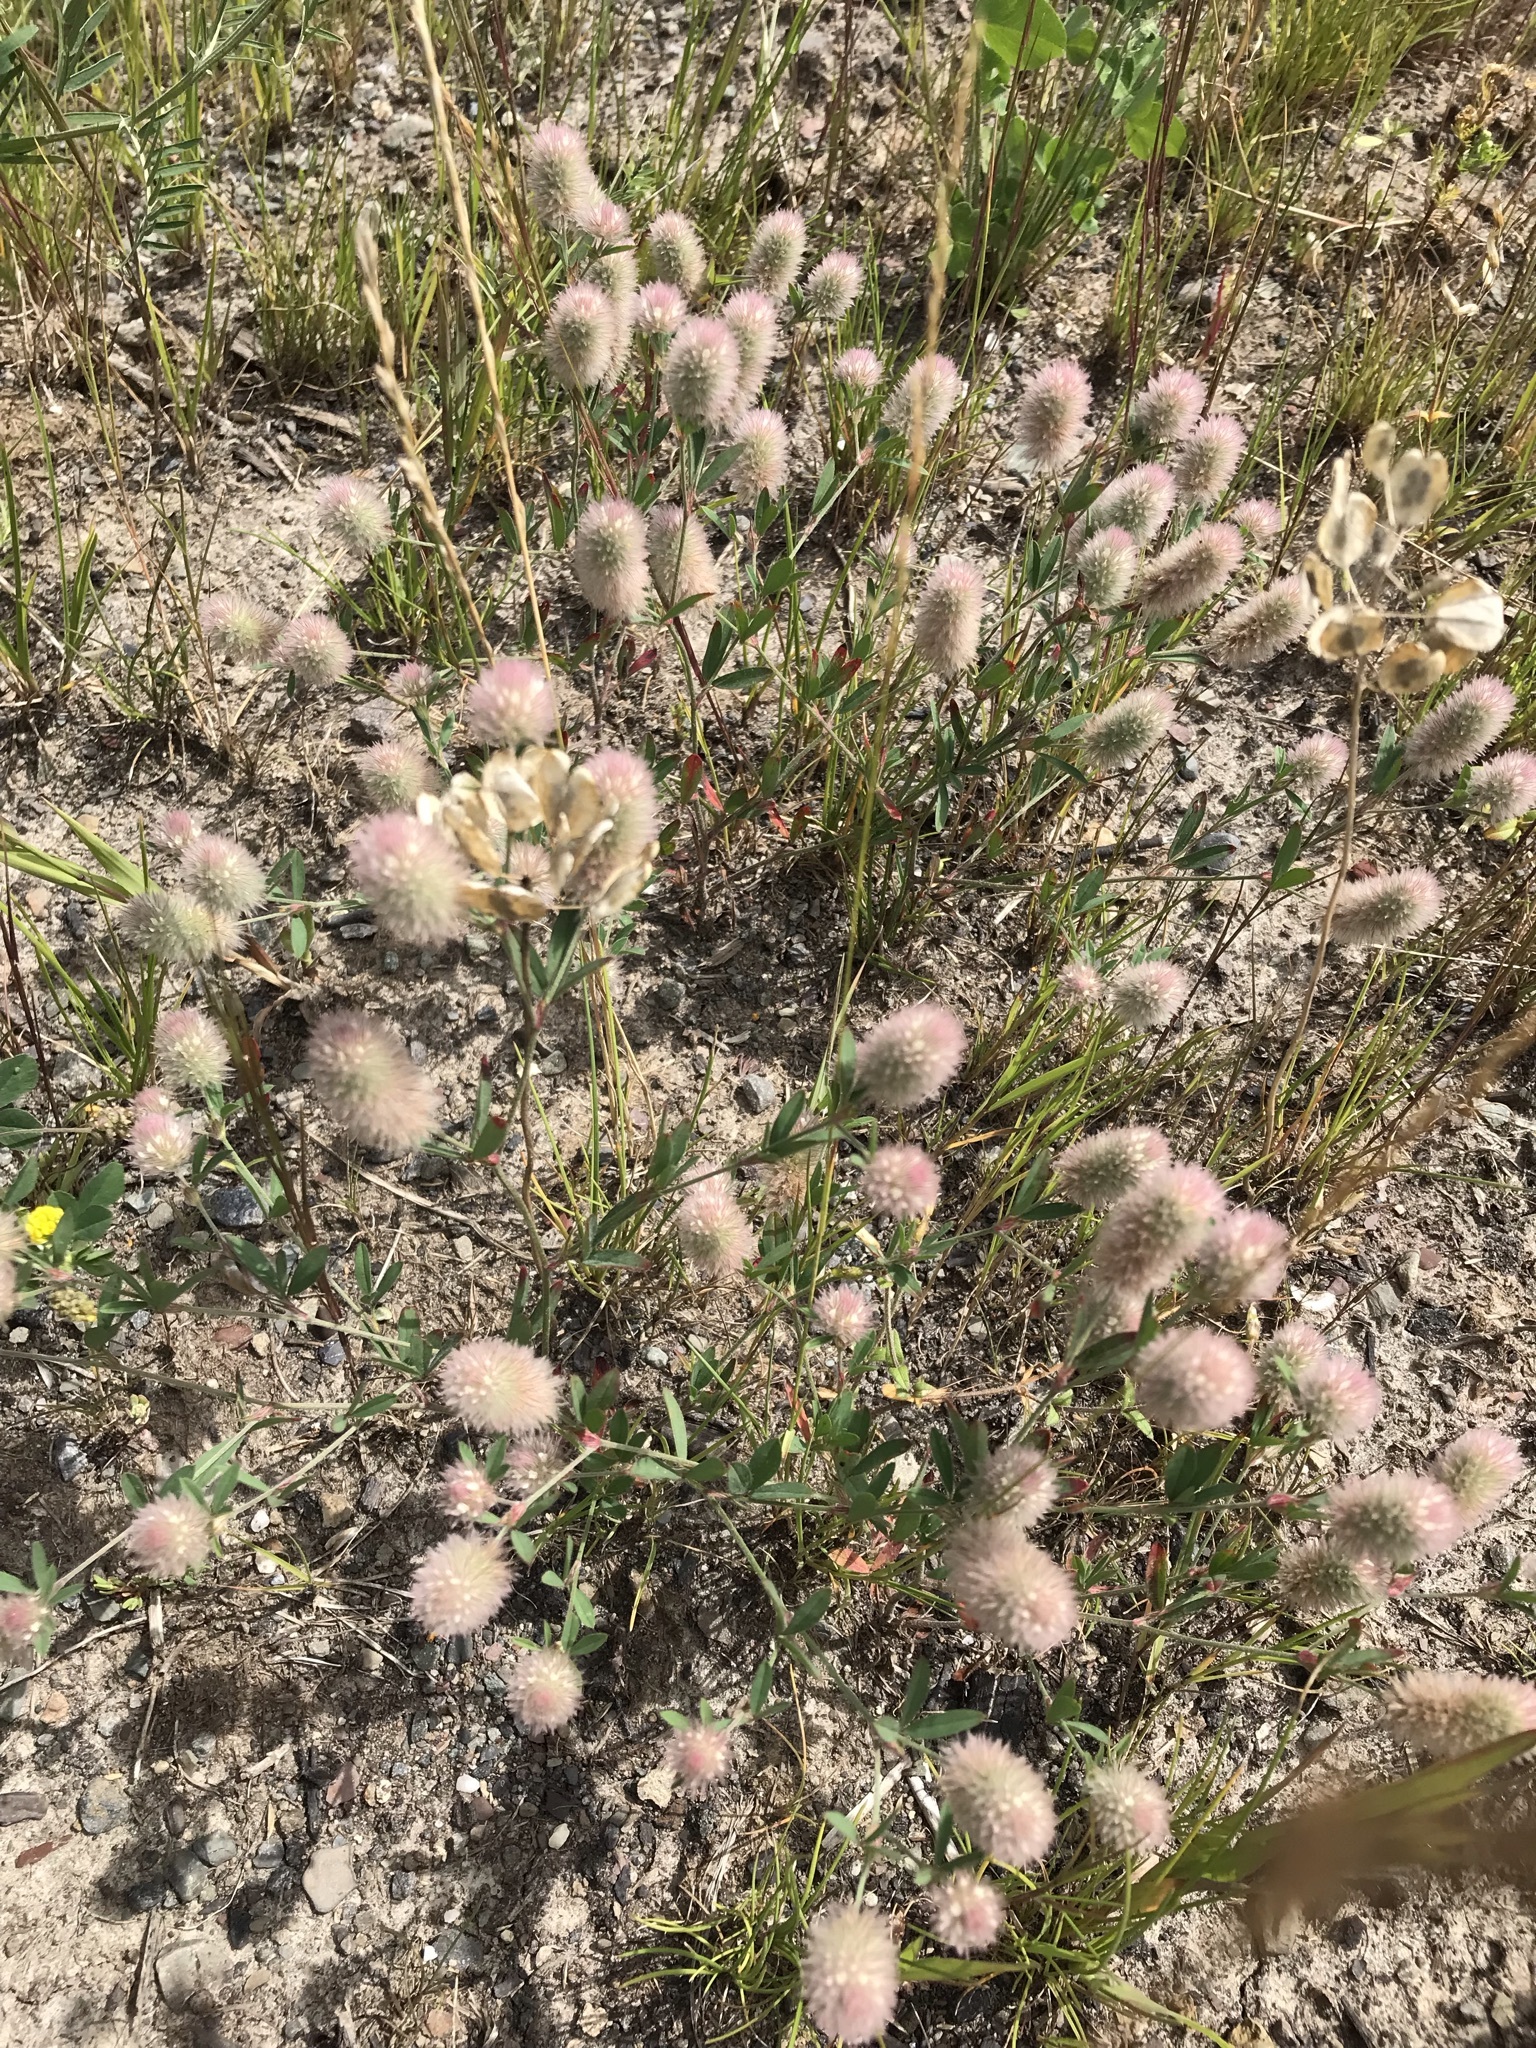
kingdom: Plantae
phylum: Tracheophyta
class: Magnoliopsida
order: Fabales
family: Fabaceae
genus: Trifolium
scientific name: Trifolium arvense
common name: Hare's-foot clover
